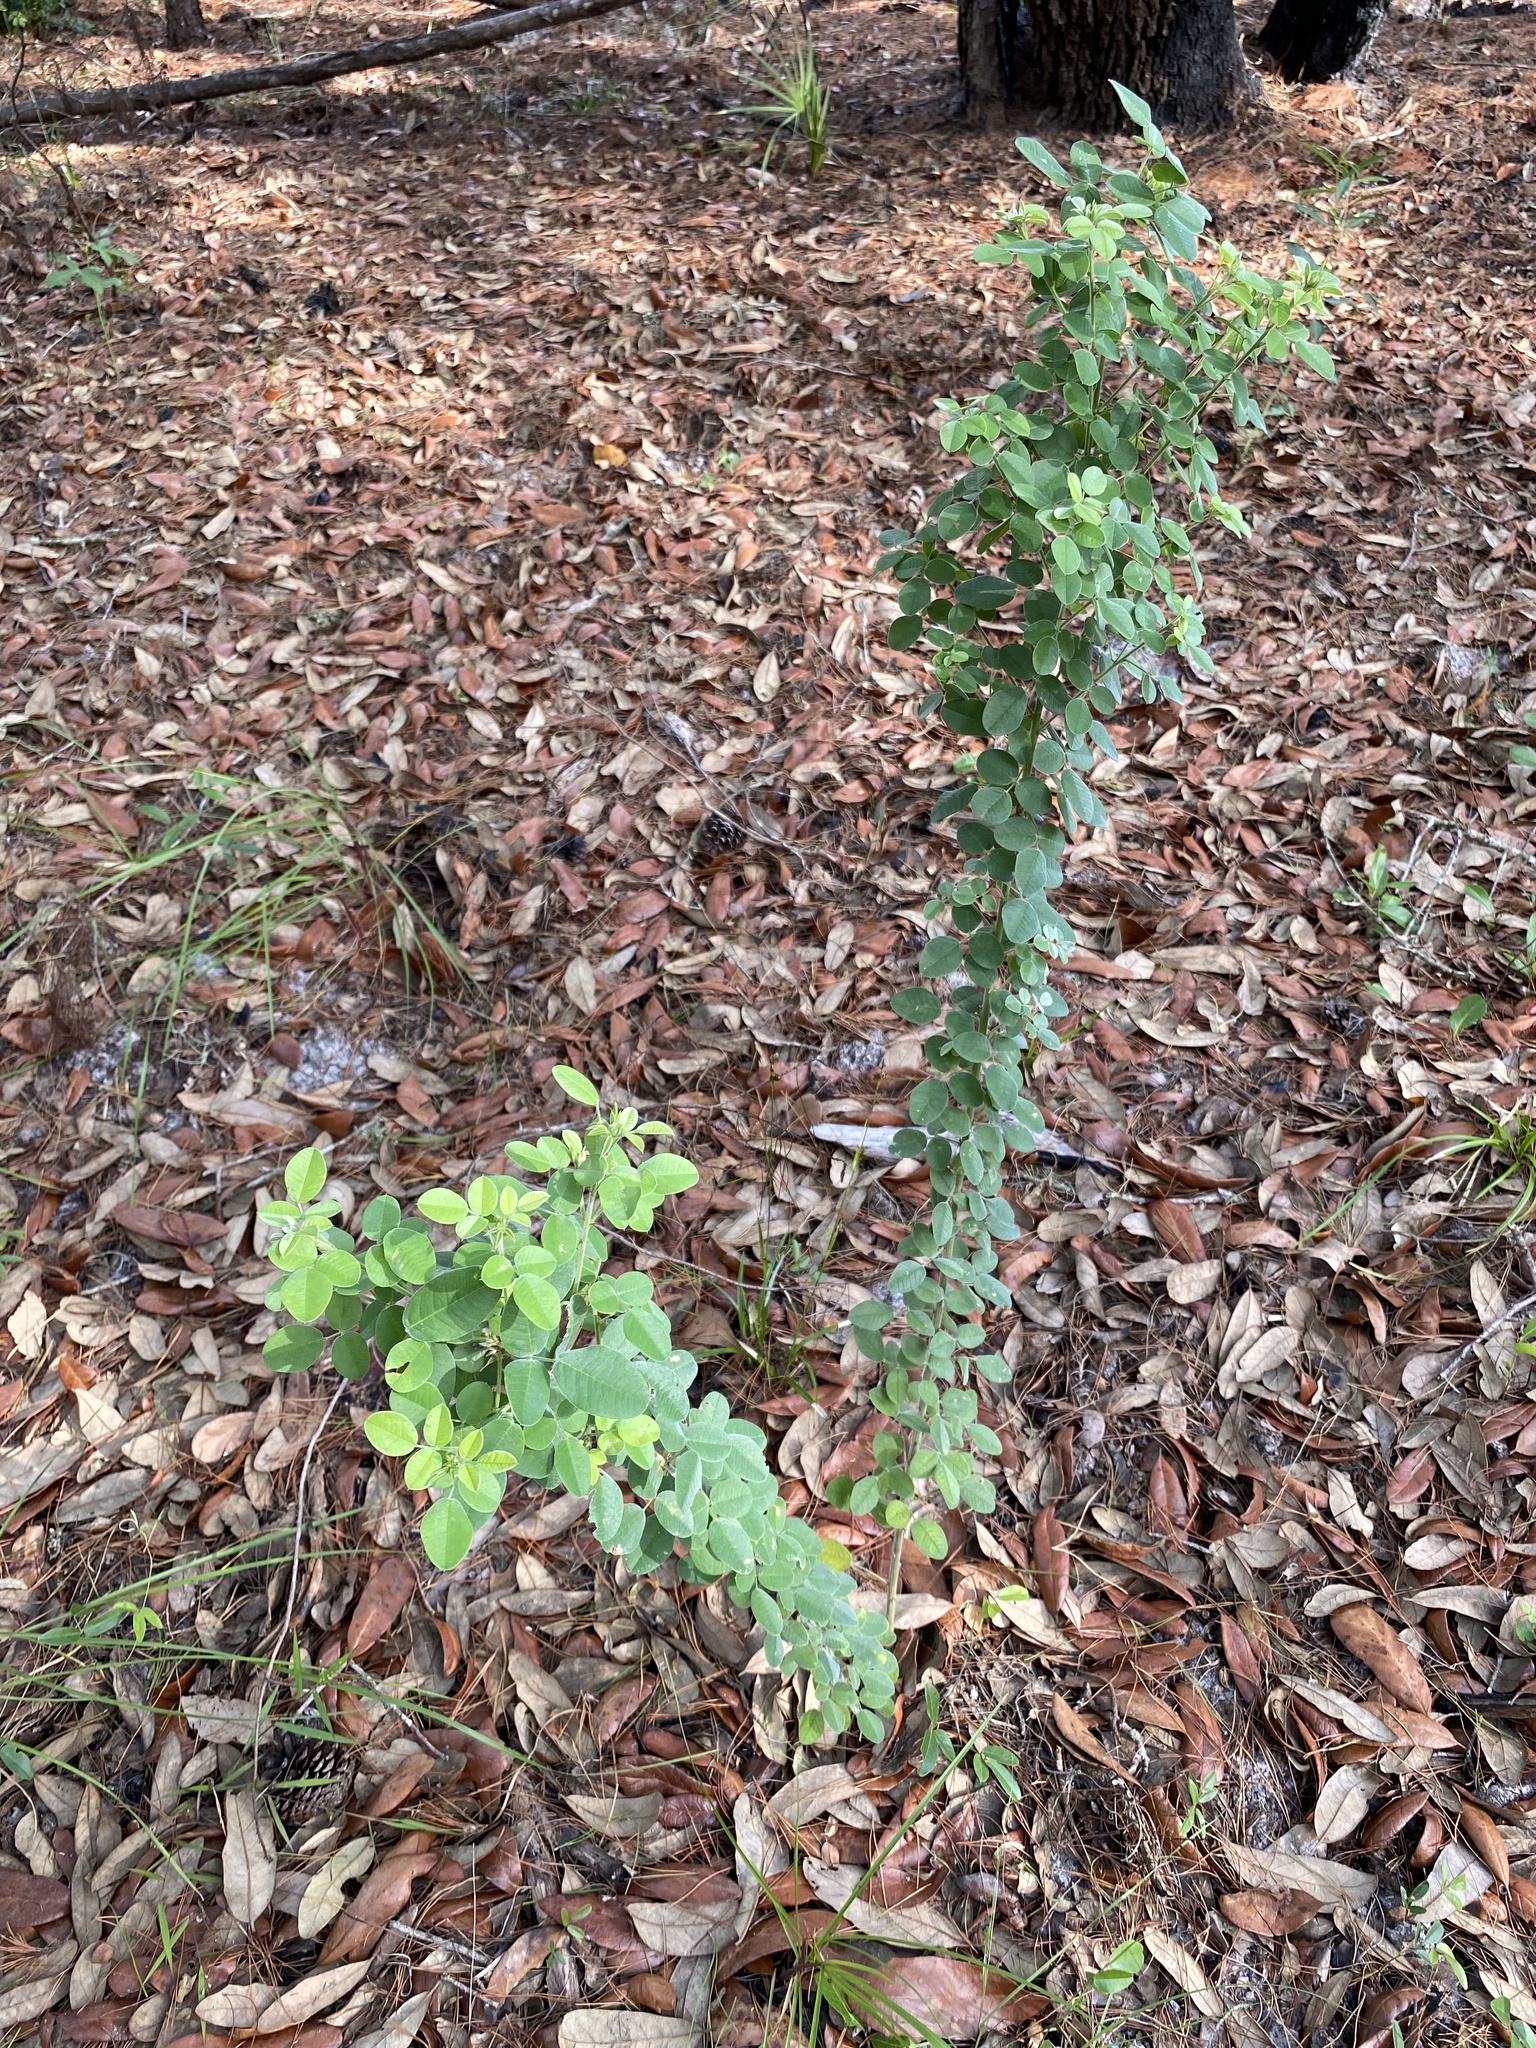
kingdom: Plantae
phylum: Tracheophyta
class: Magnoliopsida
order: Fabales
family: Fabaceae
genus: Lespedeza
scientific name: Lespedeza hirta
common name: Hairy lespedeza
